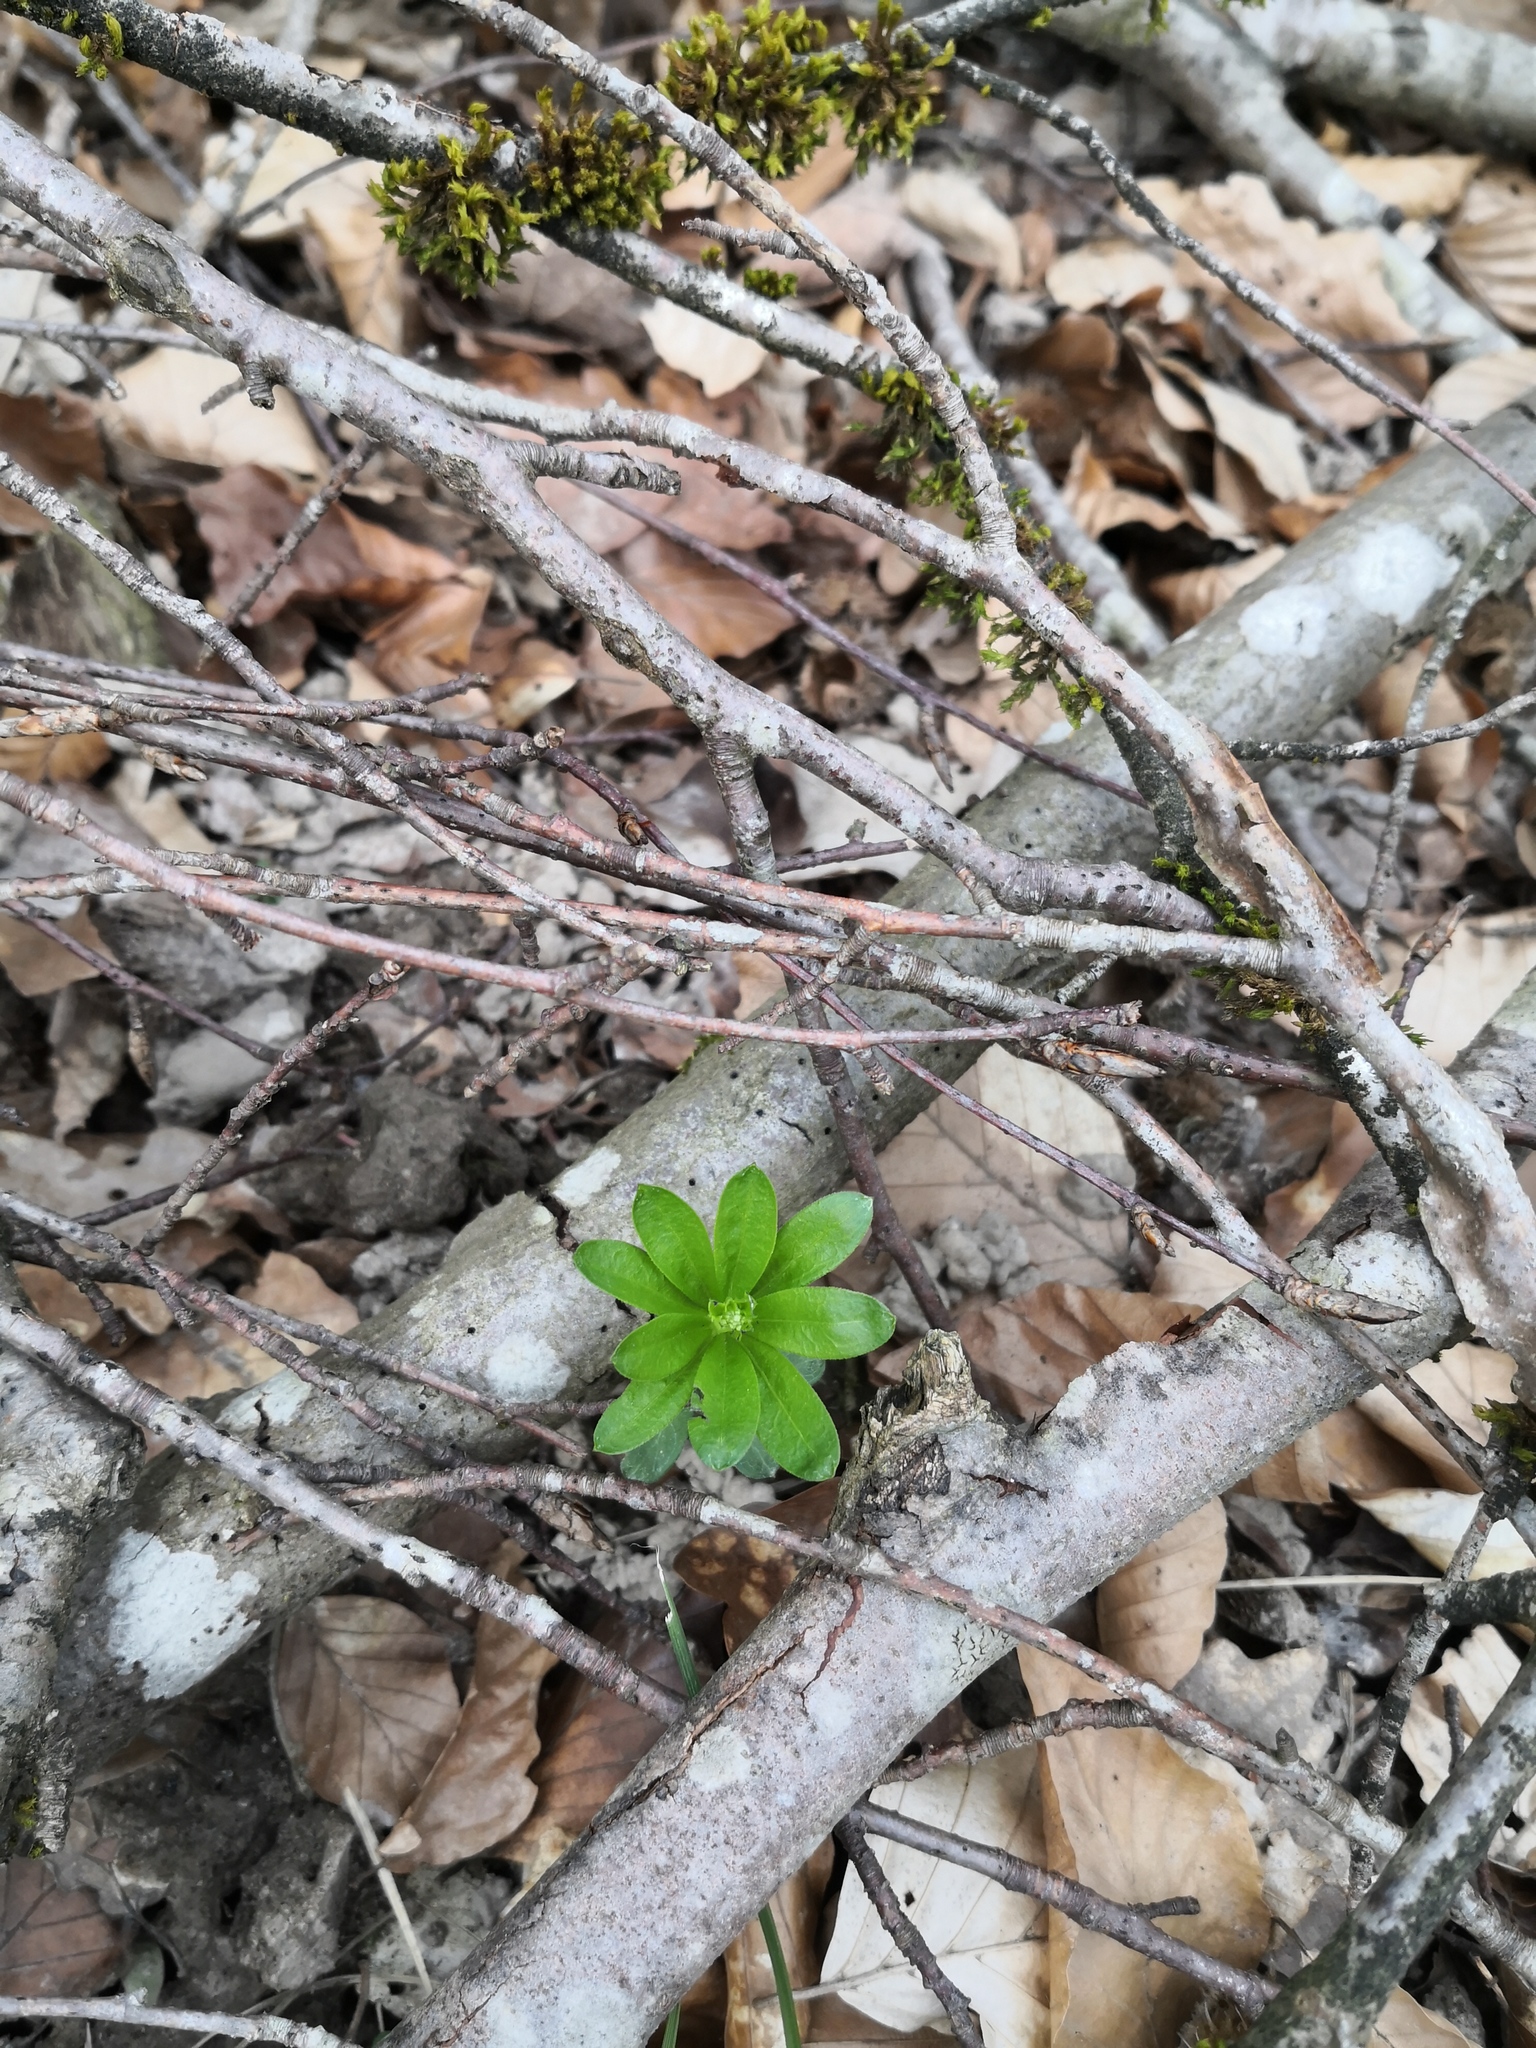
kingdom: Plantae
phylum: Tracheophyta
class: Magnoliopsida
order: Gentianales
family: Rubiaceae
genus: Galium
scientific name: Galium odoratum
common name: Sweet woodruff
